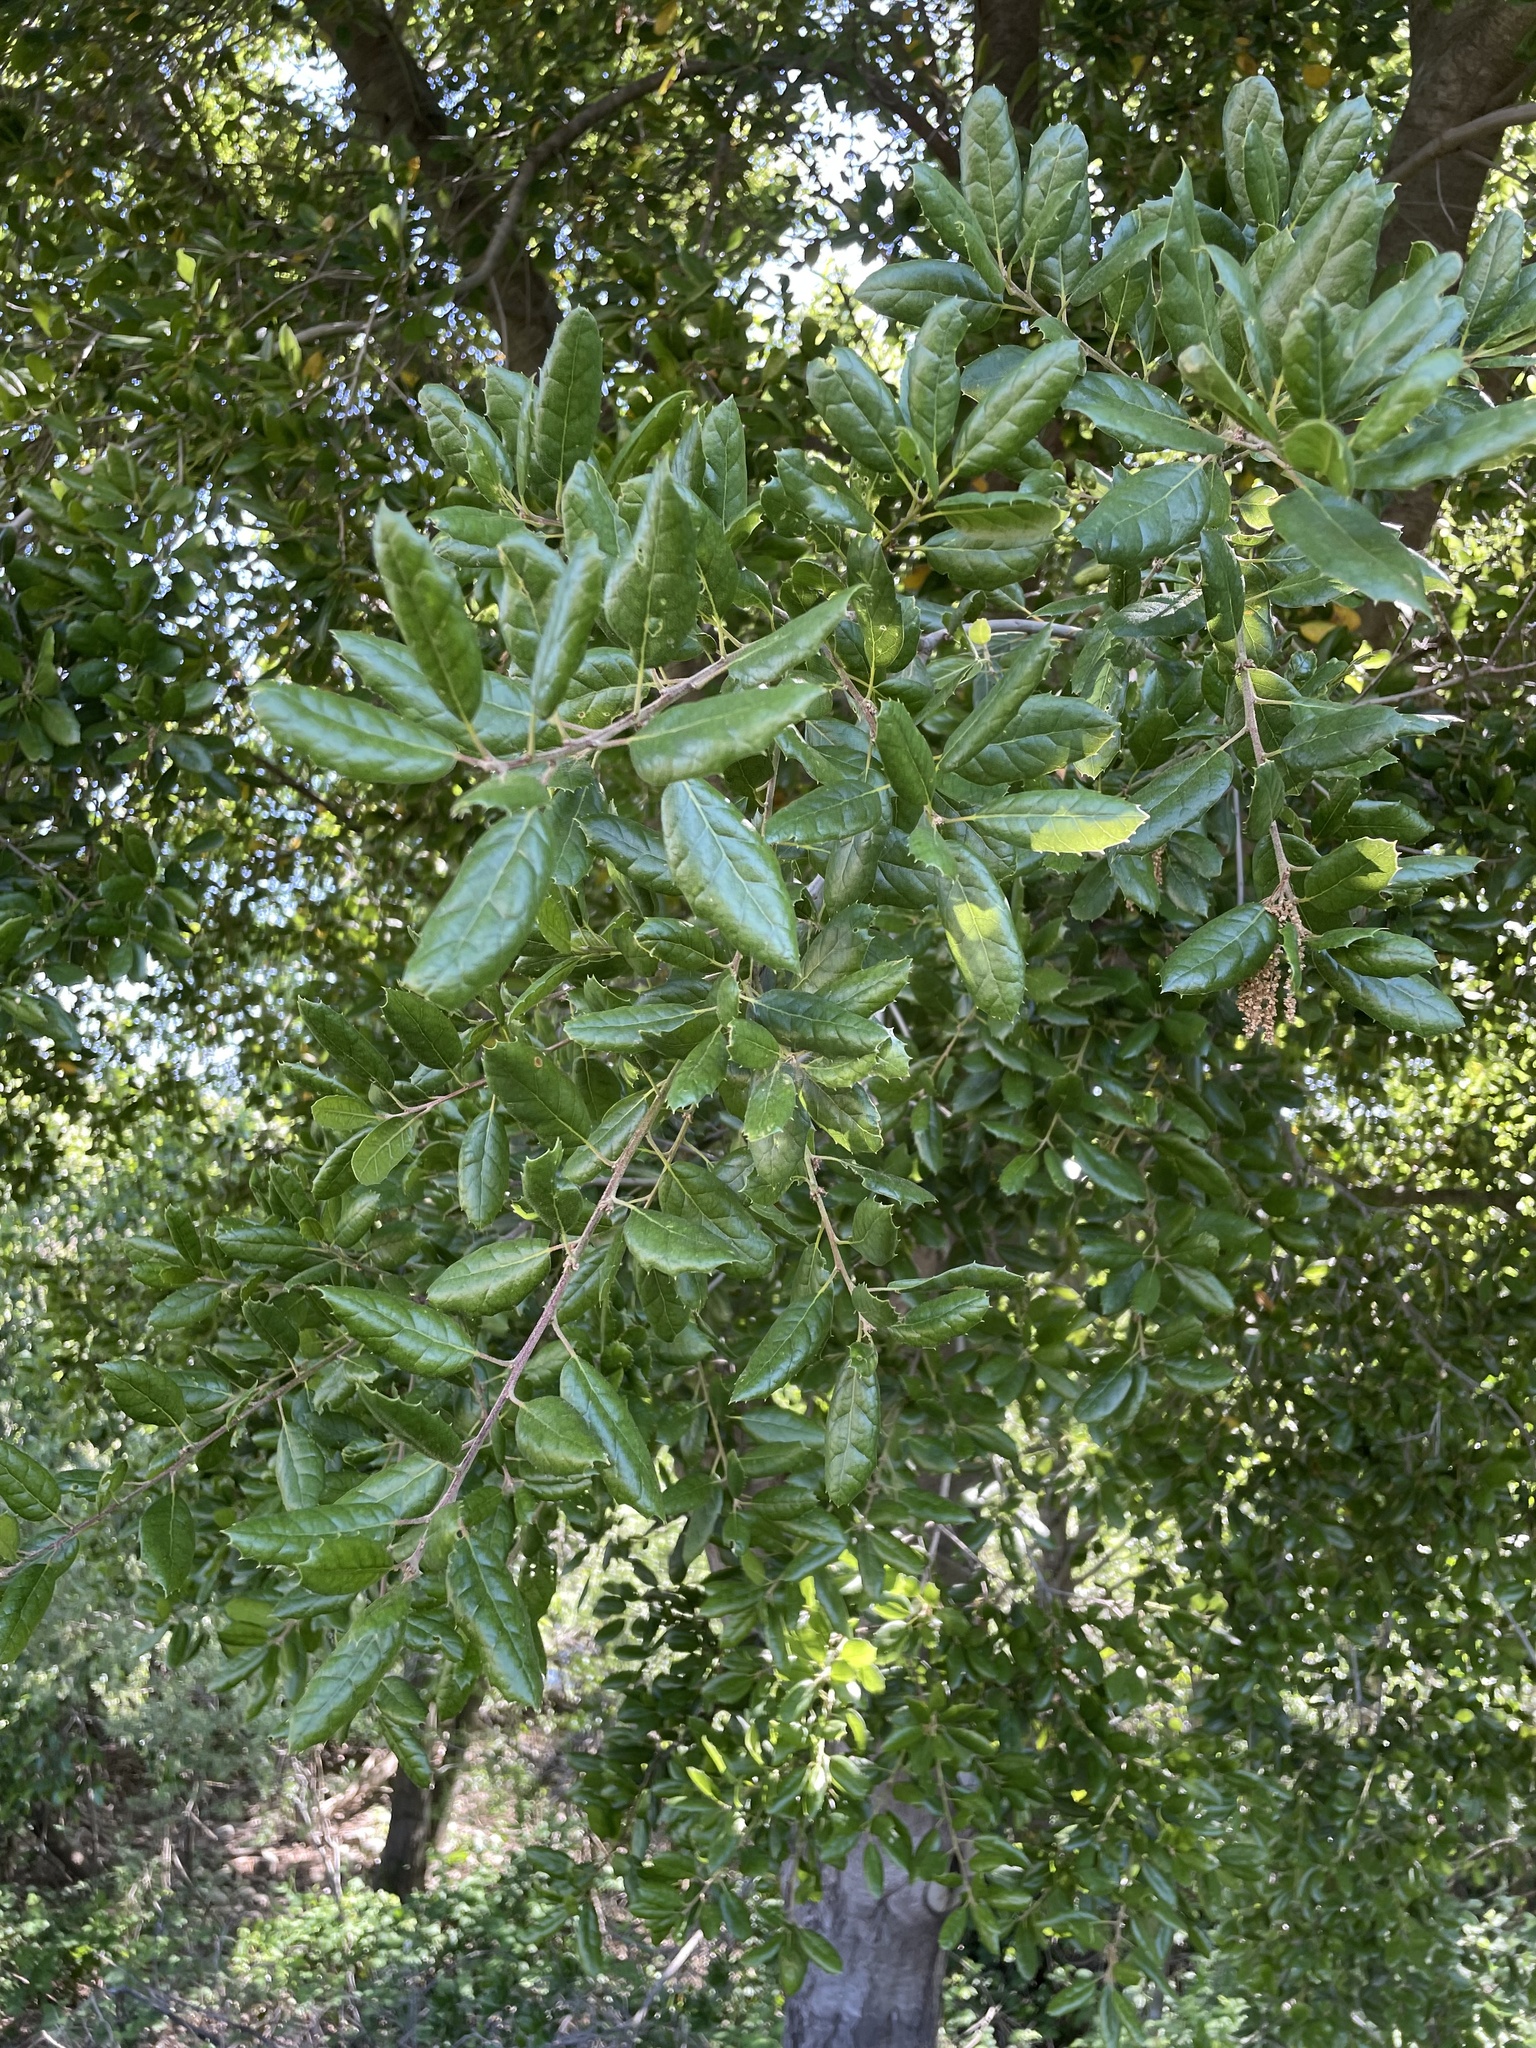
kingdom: Plantae
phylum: Tracheophyta
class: Magnoliopsida
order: Fagales
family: Fagaceae
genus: Quercus
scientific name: Quercus agrifolia
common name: California live oak
